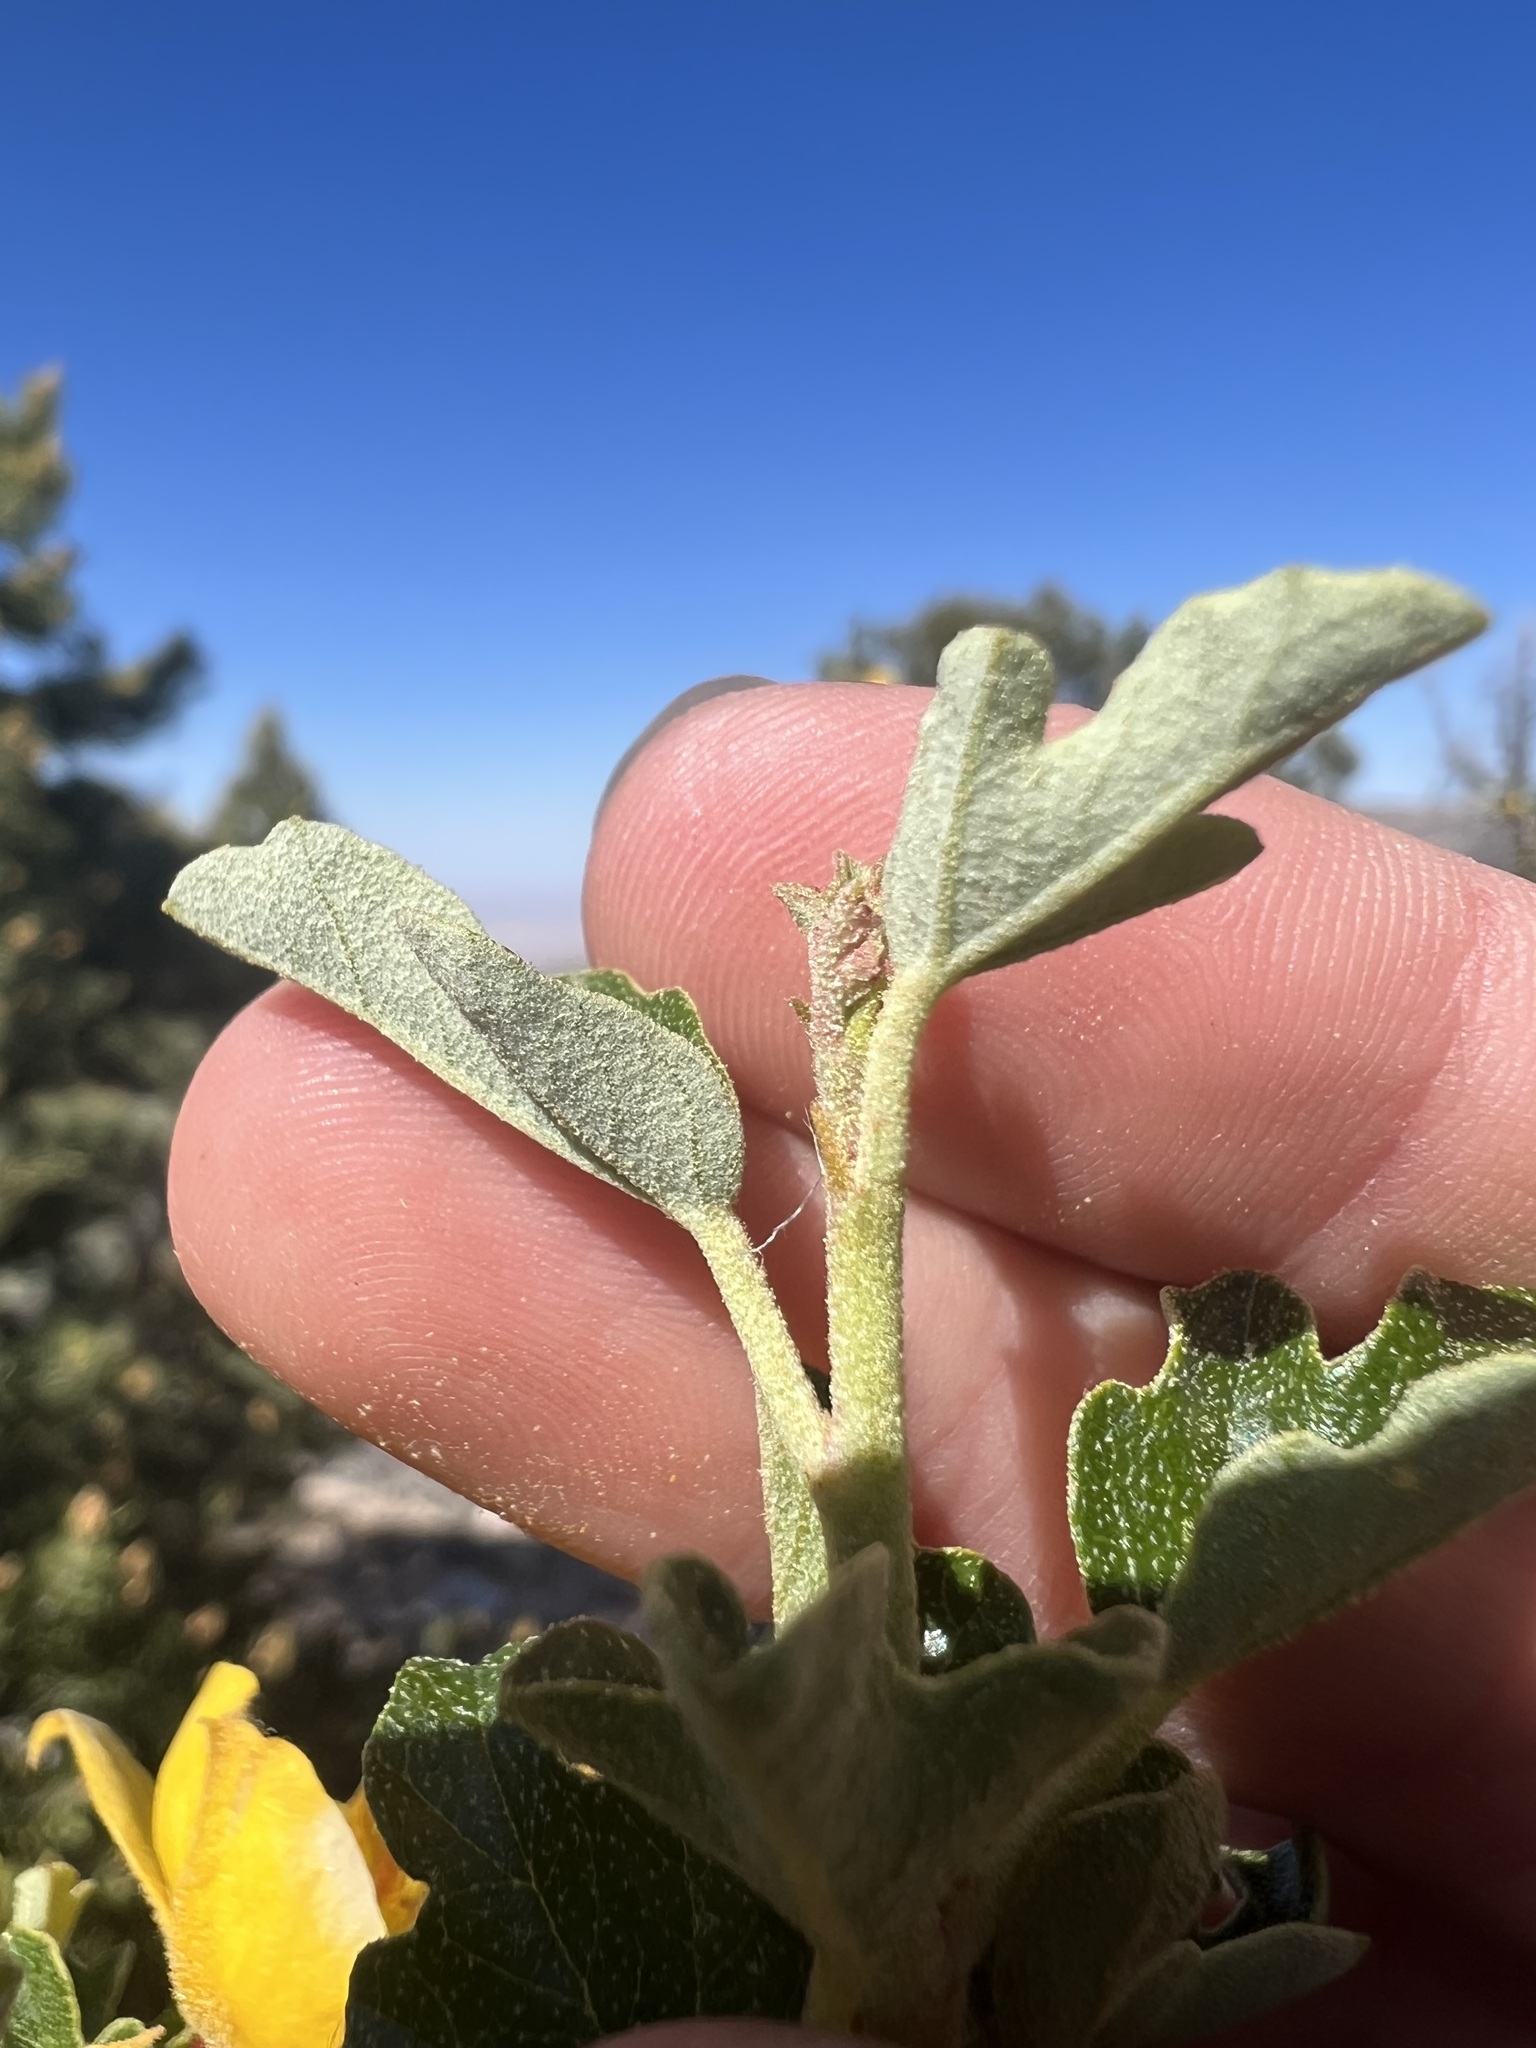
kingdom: Plantae
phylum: Tracheophyta
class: Magnoliopsida
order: Malvales
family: Malvaceae
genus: Fremontodendron
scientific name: Fremontodendron californicum
